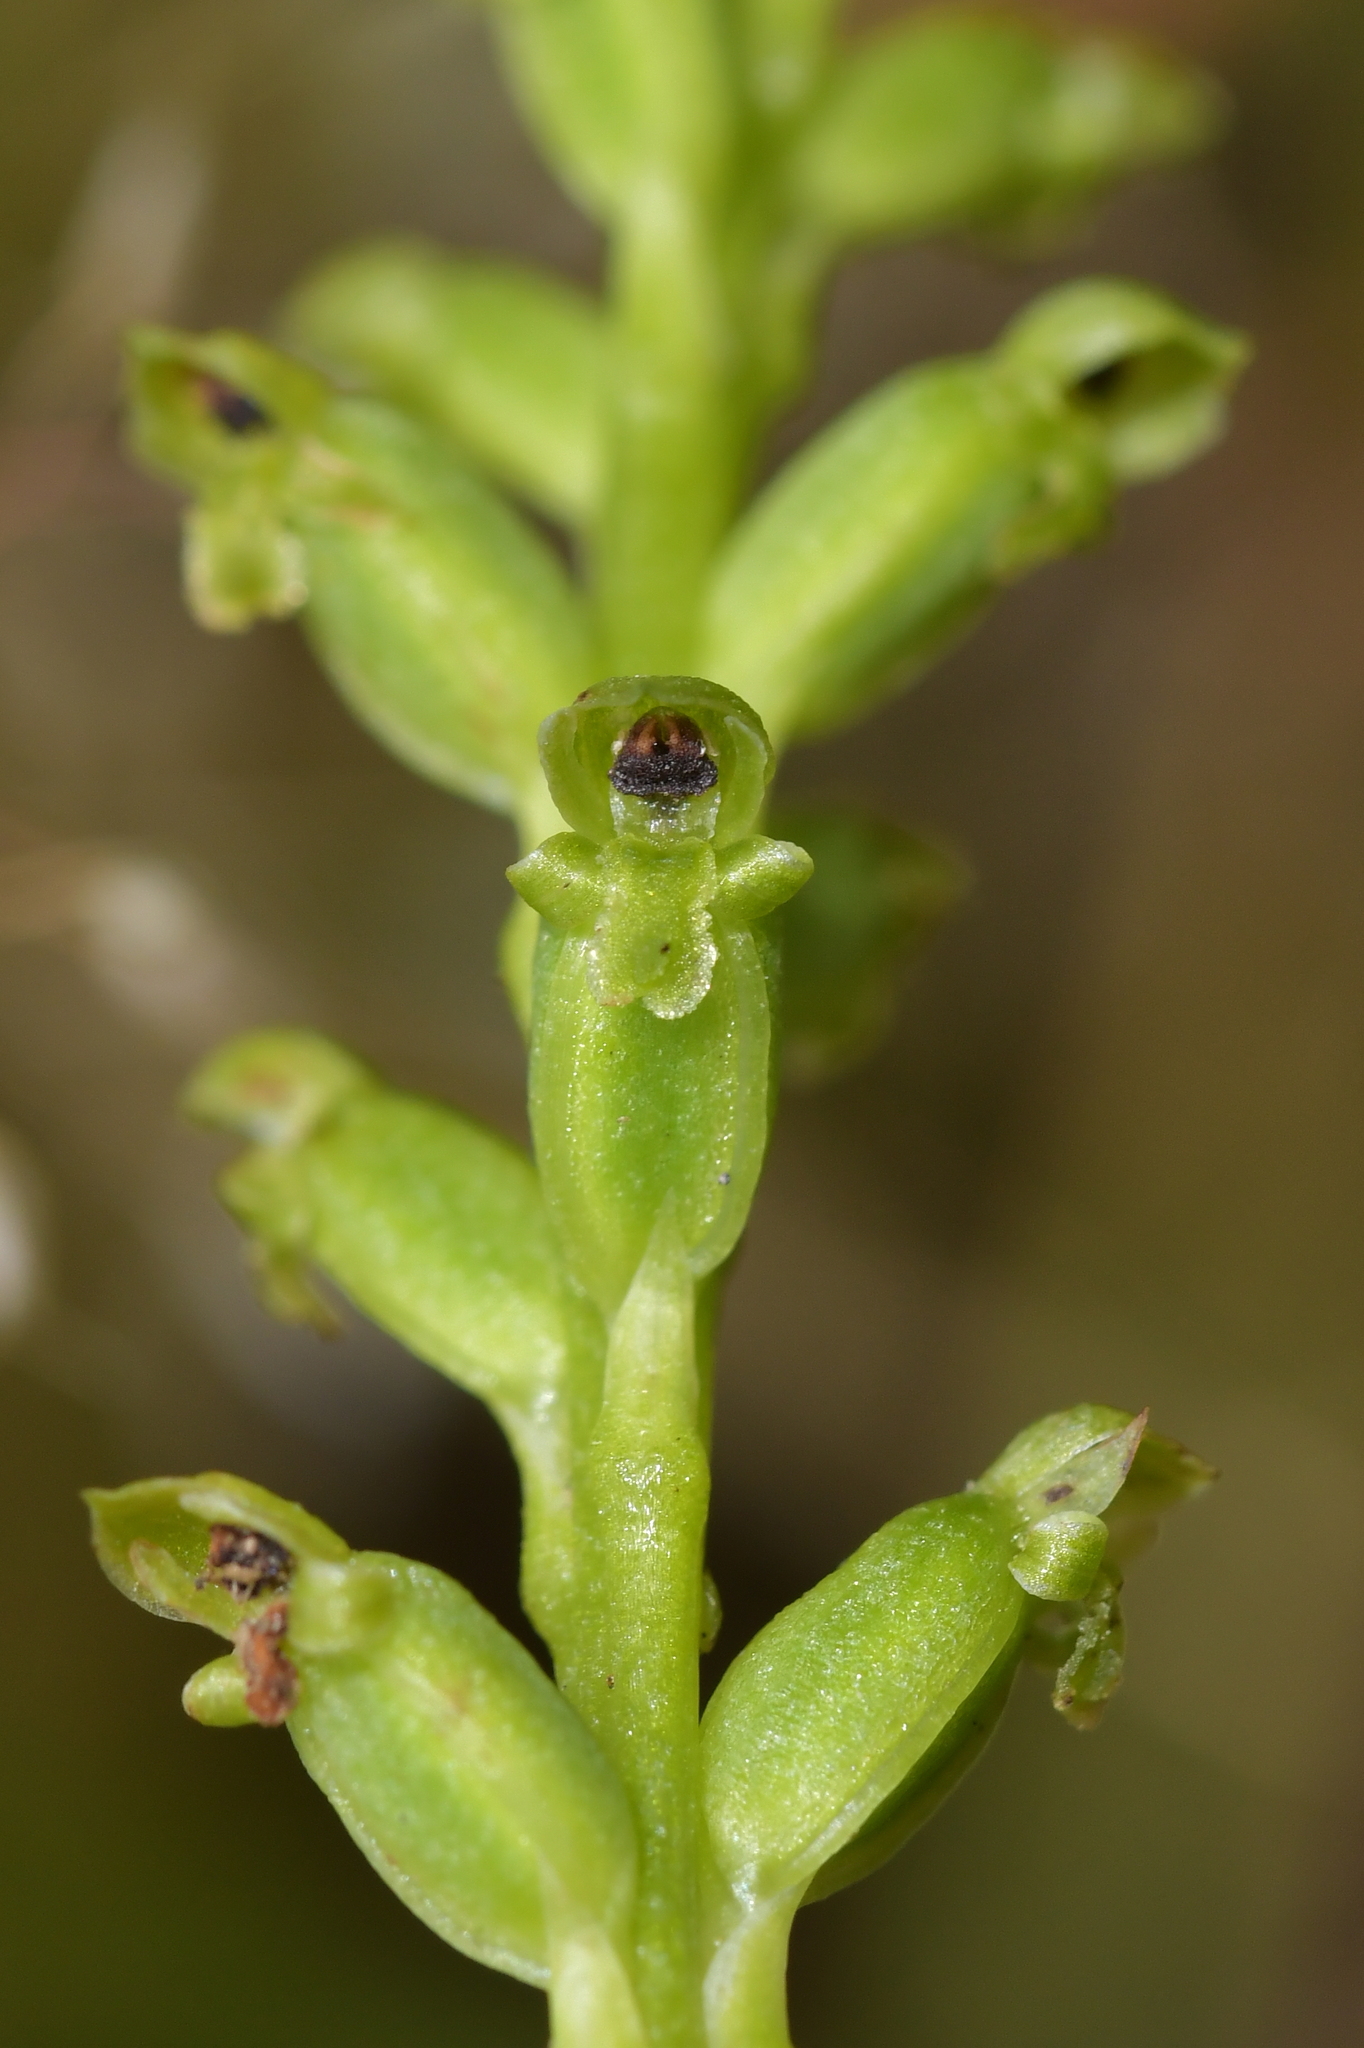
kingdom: Plantae
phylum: Tracheophyta
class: Liliopsida
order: Asparagales
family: Orchidaceae
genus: Microtis
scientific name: Microtis unifolia
